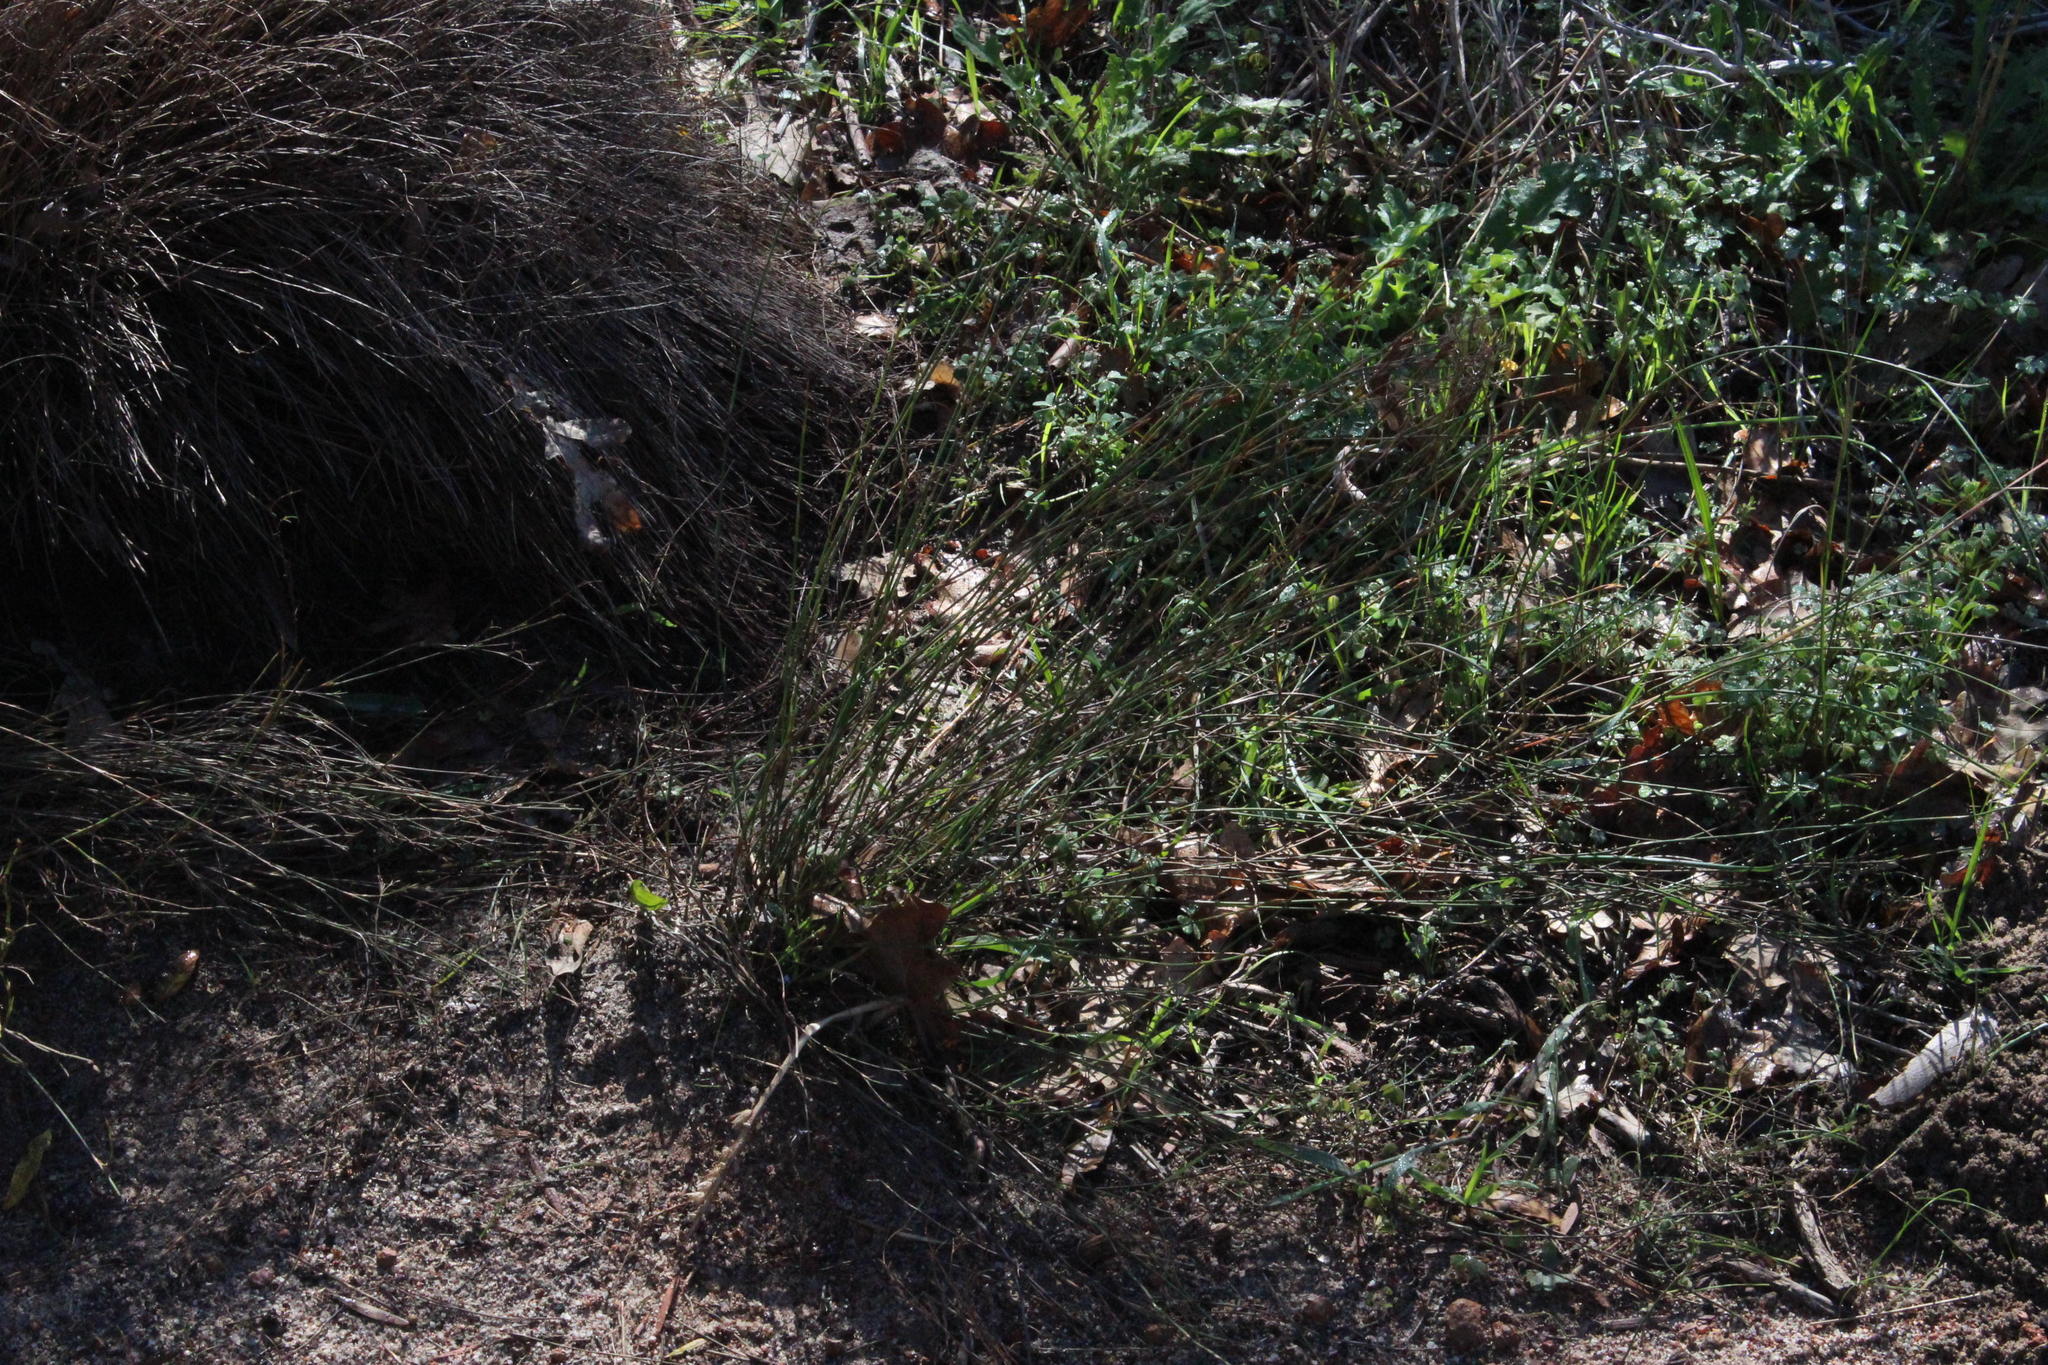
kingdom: Plantae
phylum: Tracheophyta
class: Liliopsida
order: Poales
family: Restionaceae
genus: Restio
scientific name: Restio capensis
